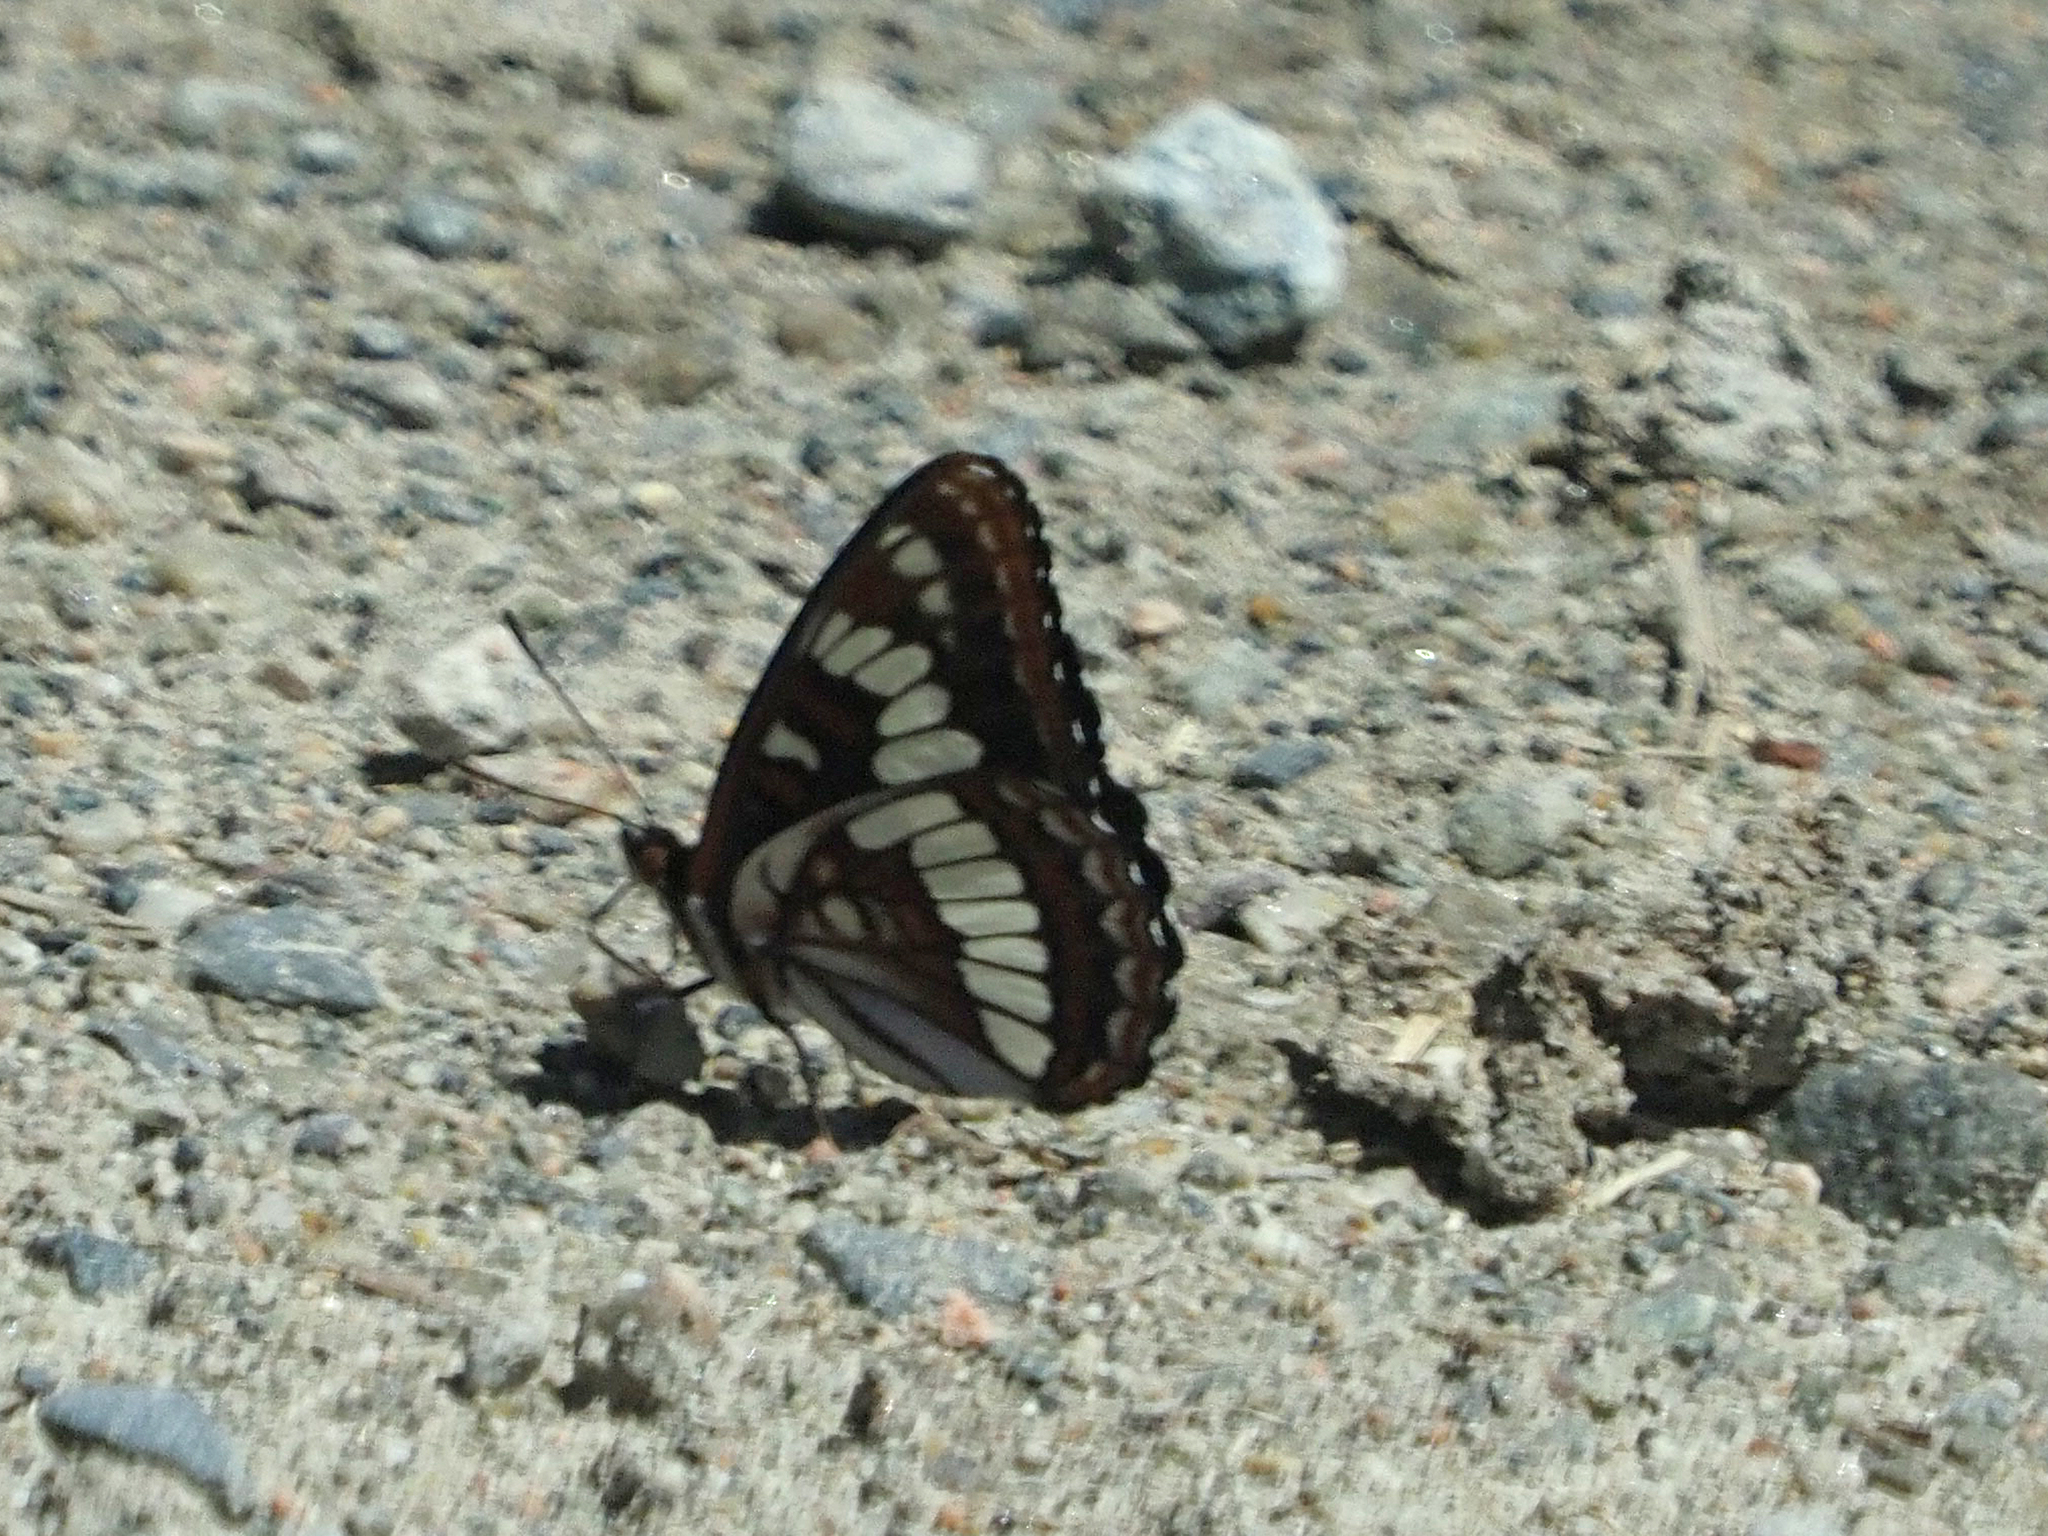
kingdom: Animalia
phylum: Arthropoda
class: Insecta
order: Lepidoptera
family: Nymphalidae
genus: Limenitis
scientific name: Limenitis lorquini
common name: Lorquin's admiral
